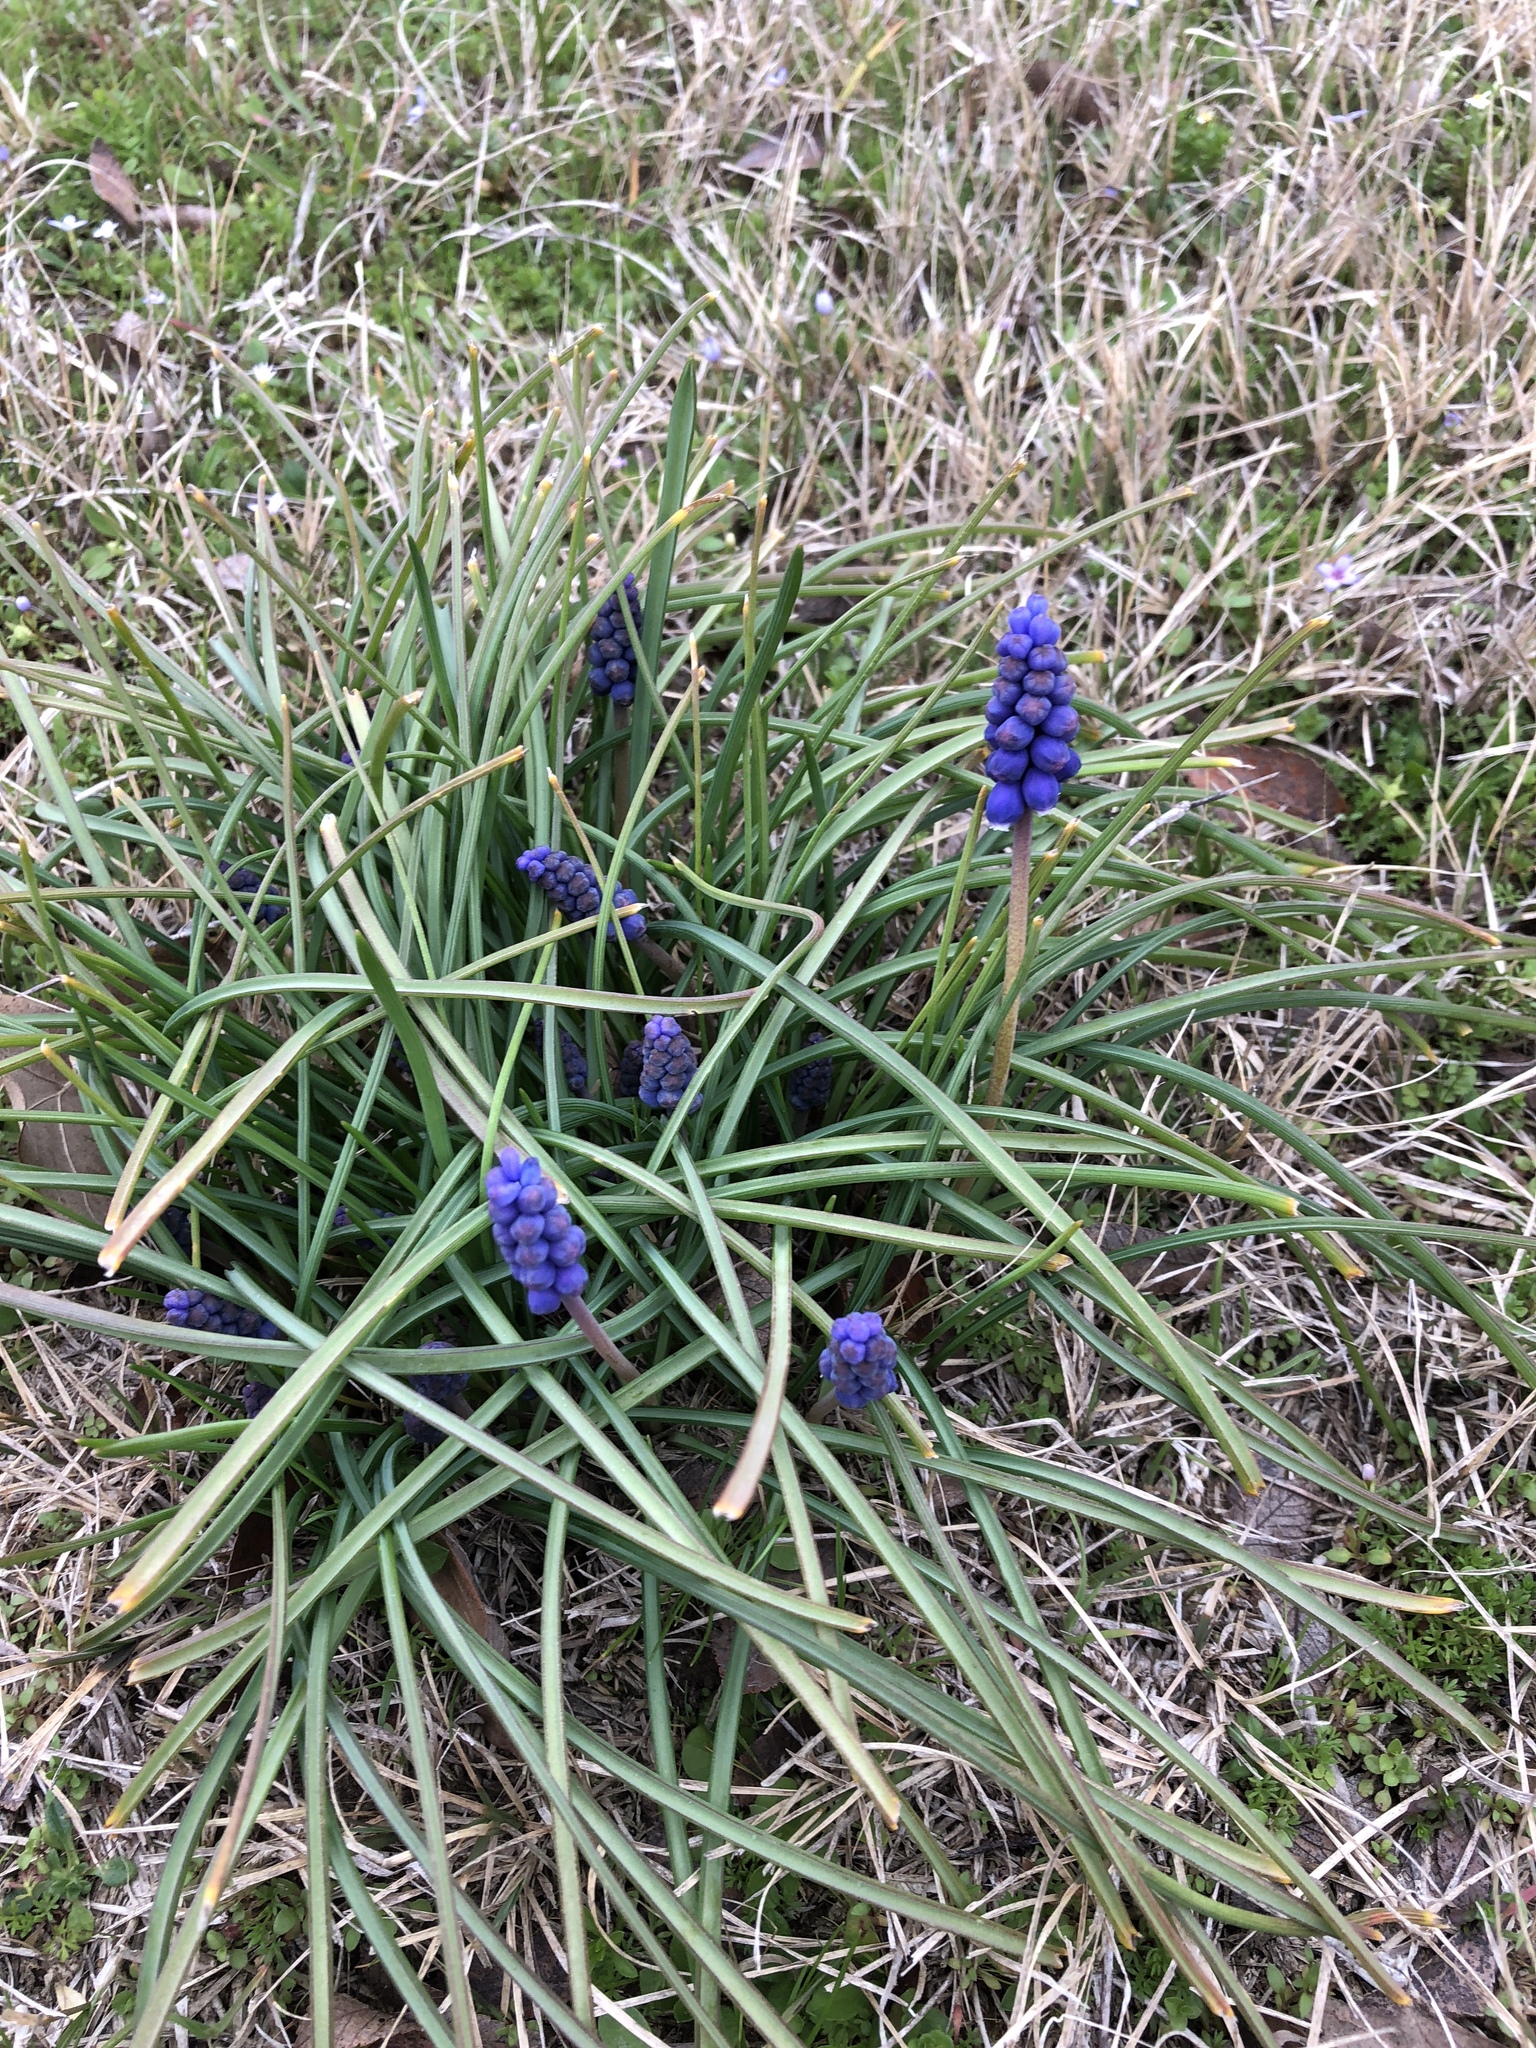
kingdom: Plantae
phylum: Tracheophyta
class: Liliopsida
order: Asparagales
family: Asparagaceae
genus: Muscari
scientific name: Muscari neglectum
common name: Grape-hyacinth
